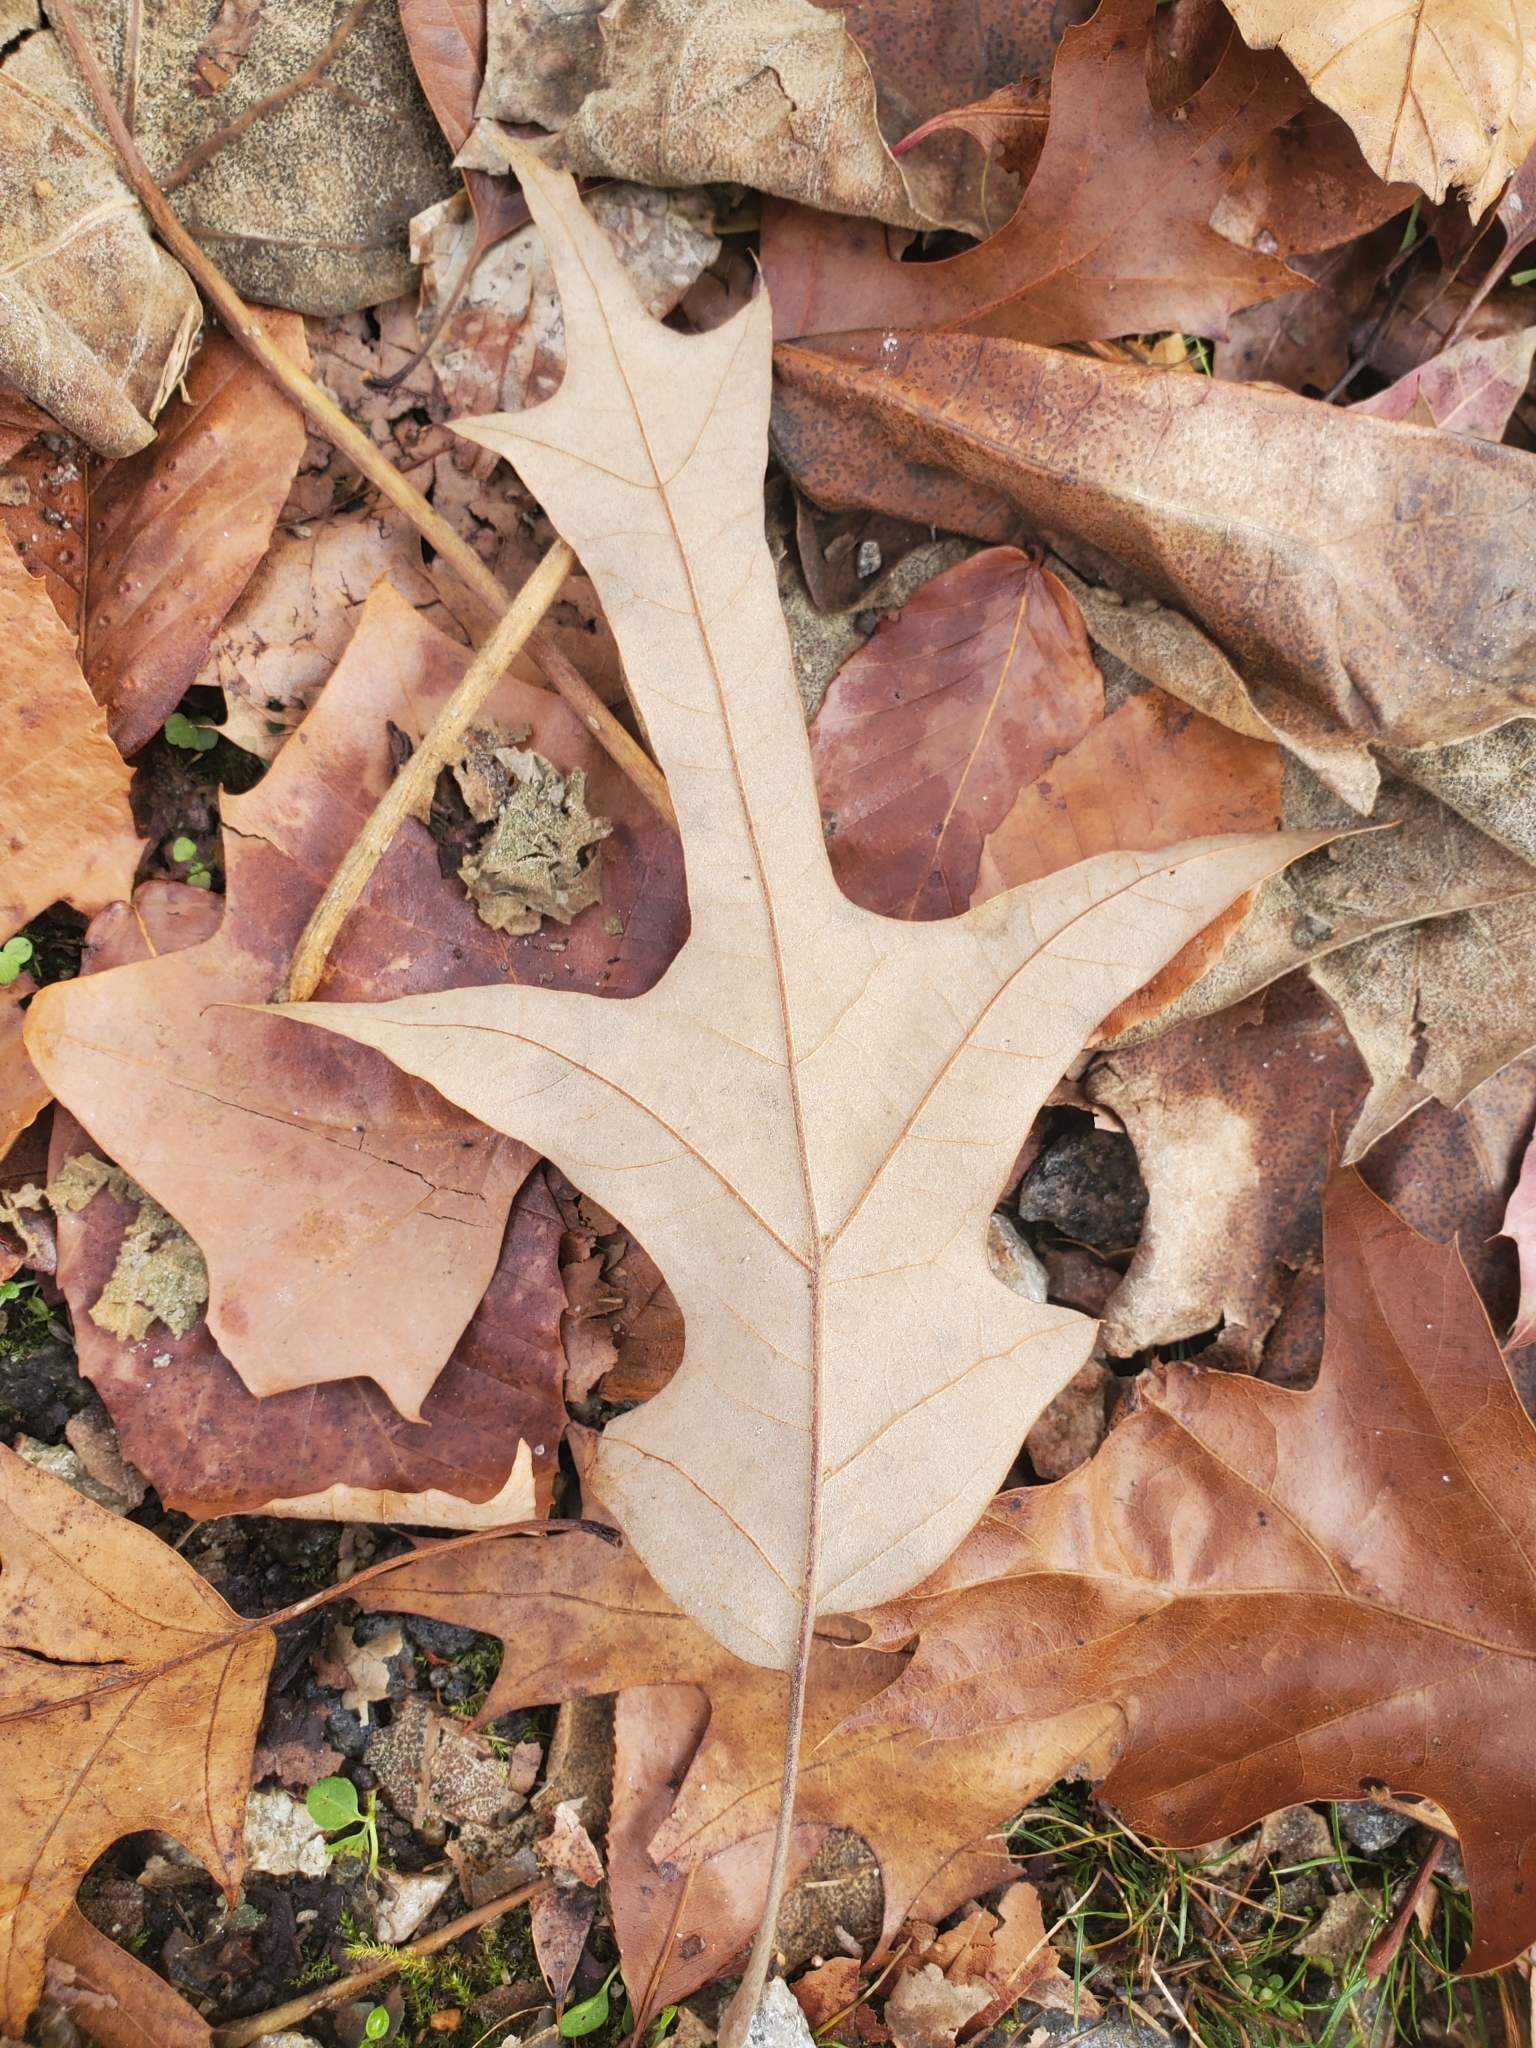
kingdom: Plantae
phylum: Tracheophyta
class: Magnoliopsida
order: Fagales
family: Fagaceae
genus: Quercus
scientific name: Quercus falcata
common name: Southern red oak
